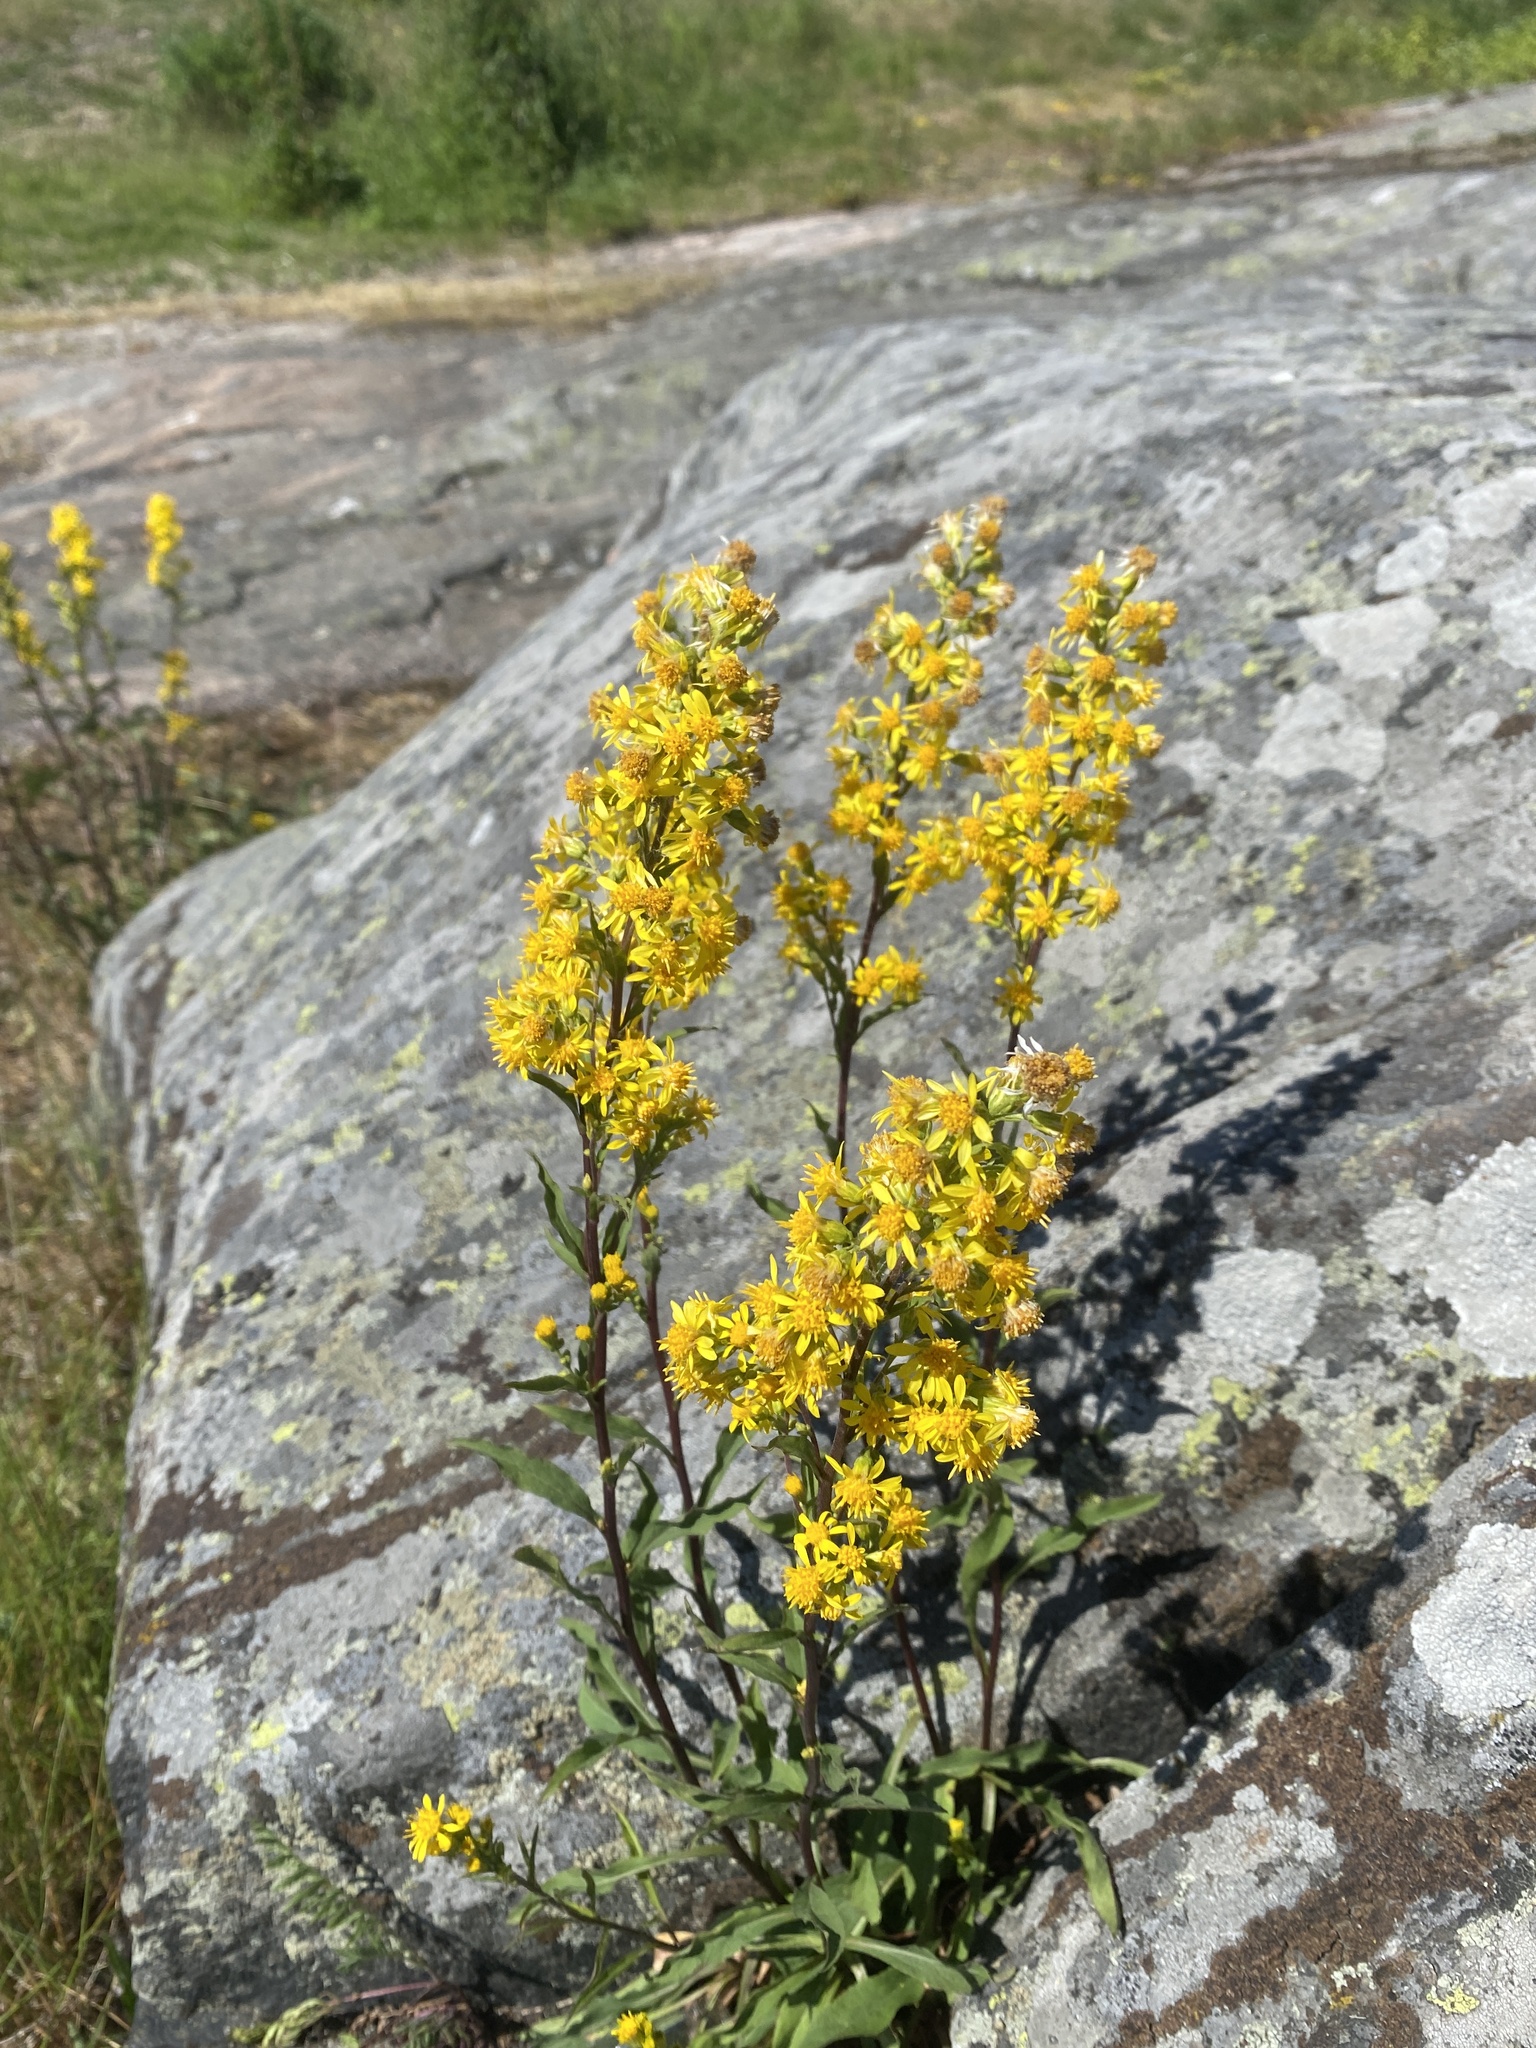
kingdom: Plantae
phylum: Tracheophyta
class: Magnoliopsida
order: Asterales
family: Asteraceae
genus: Solidago
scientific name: Solidago virgaurea
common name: Goldenrod
